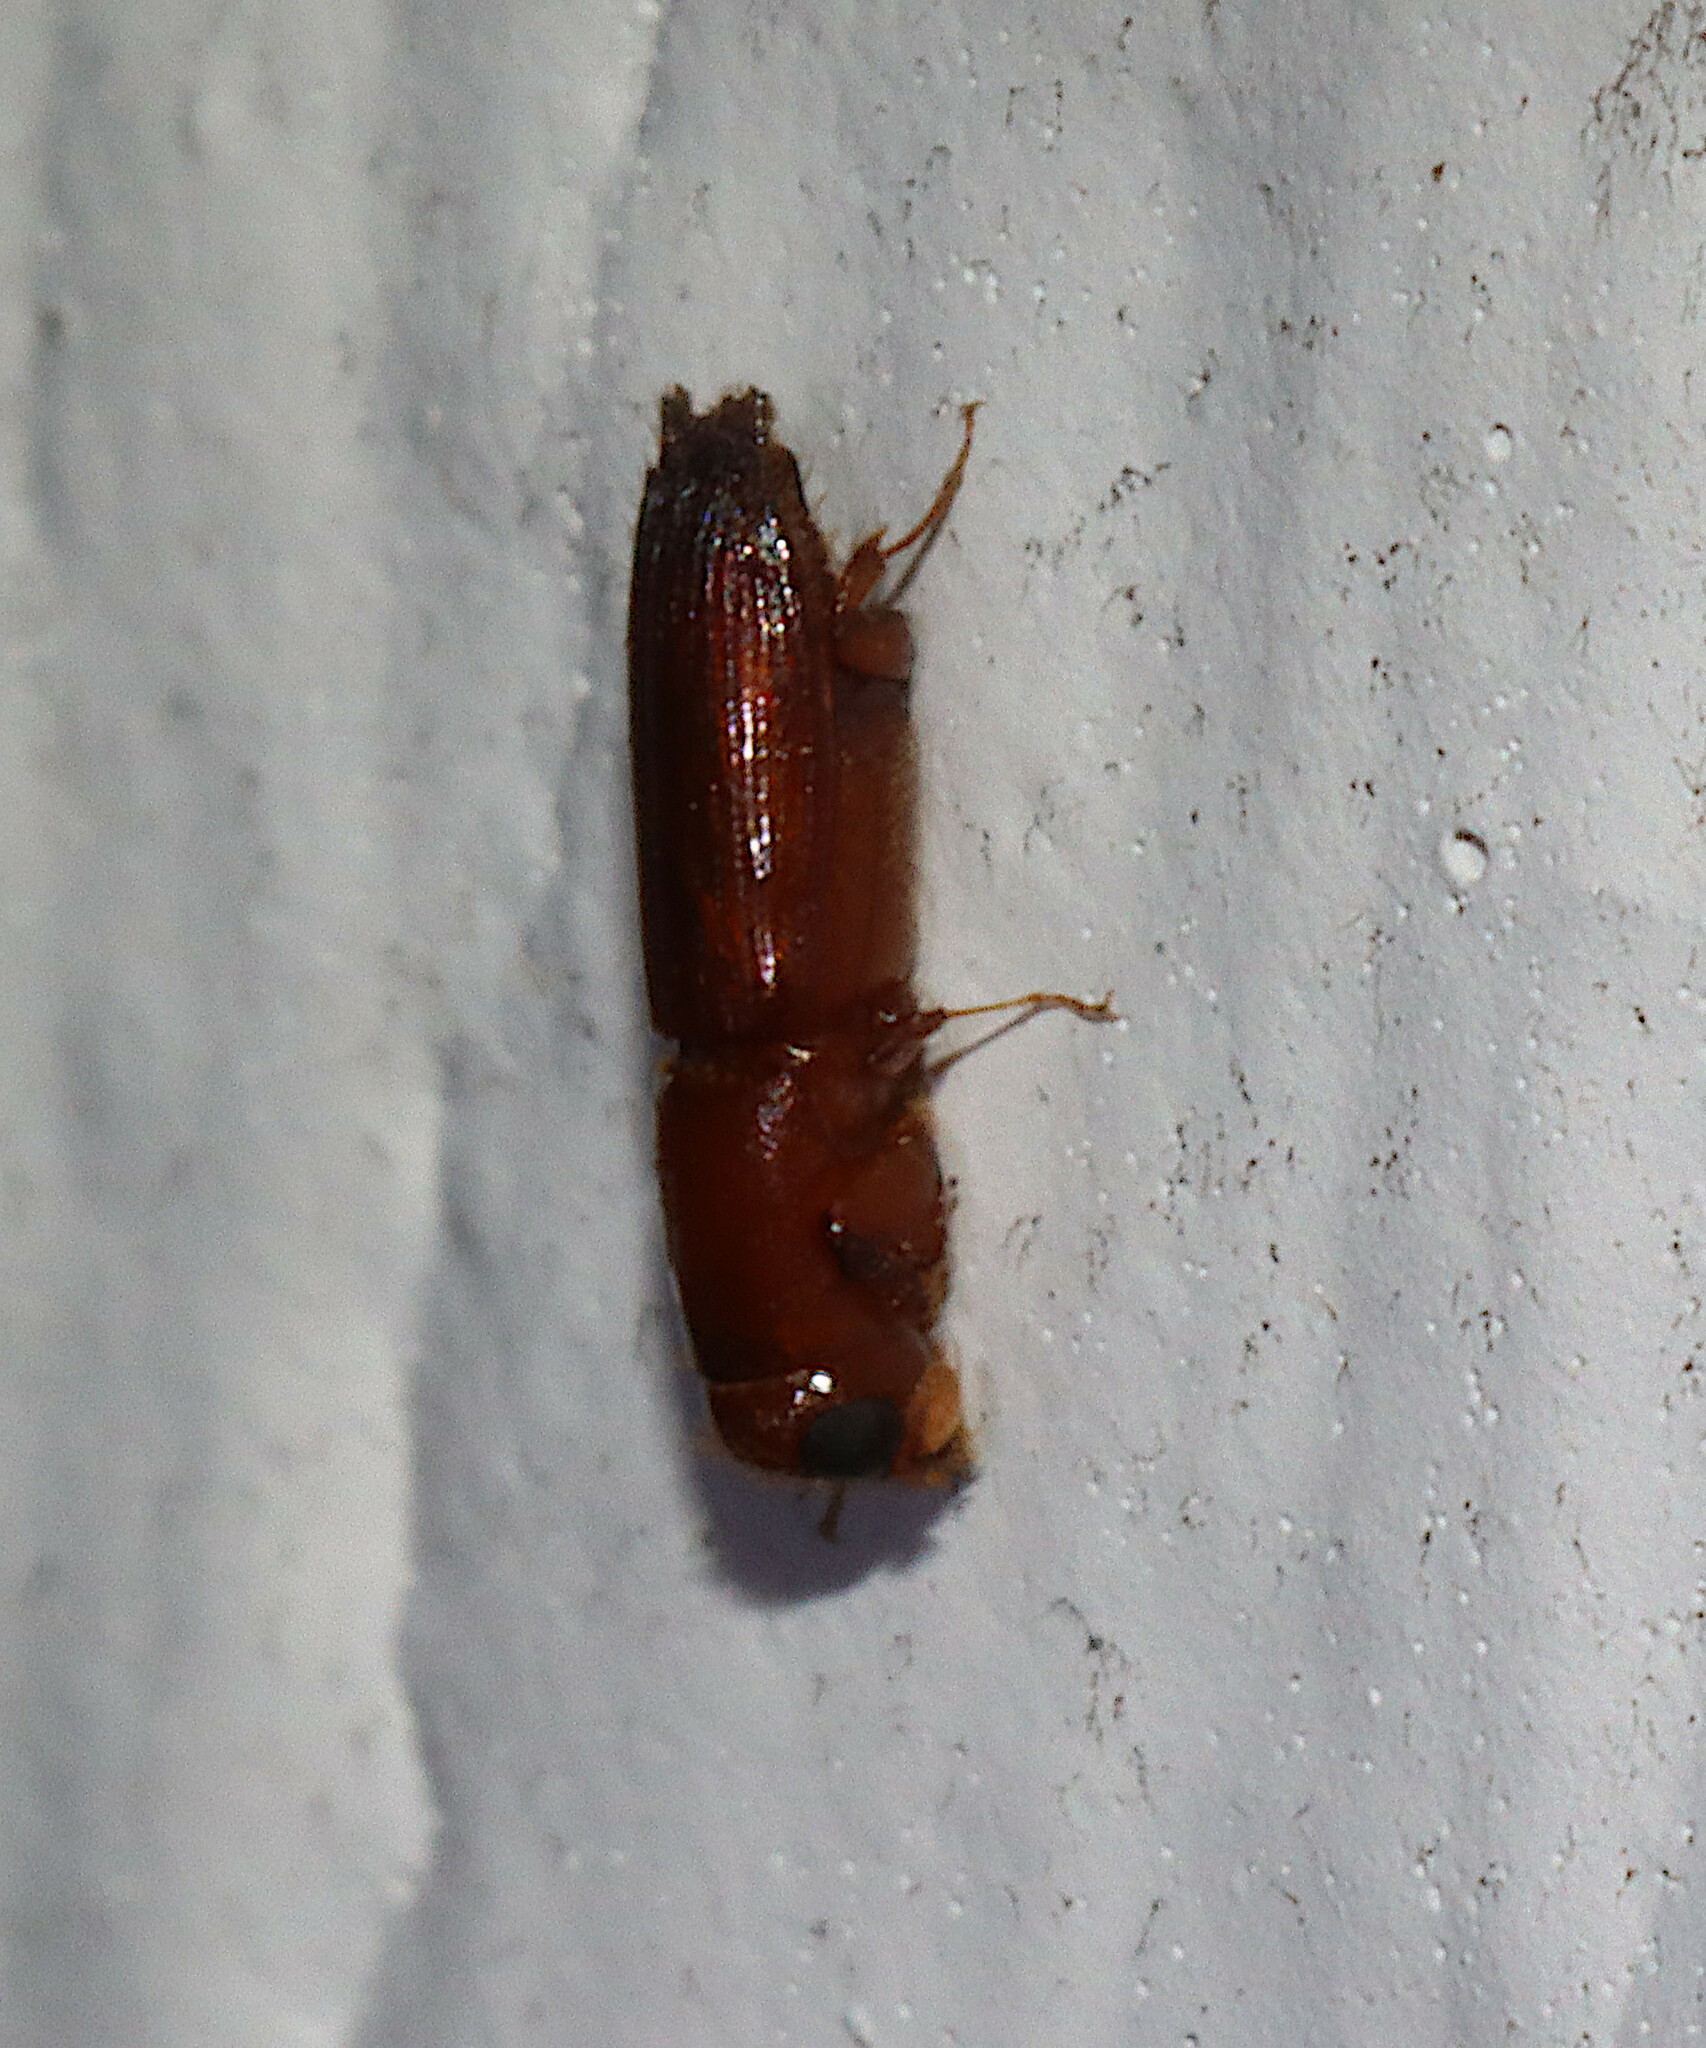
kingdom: Animalia
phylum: Arthropoda
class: Insecta
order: Coleoptera
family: Curculionidae
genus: Euplatypus
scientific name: Euplatypus compositus
